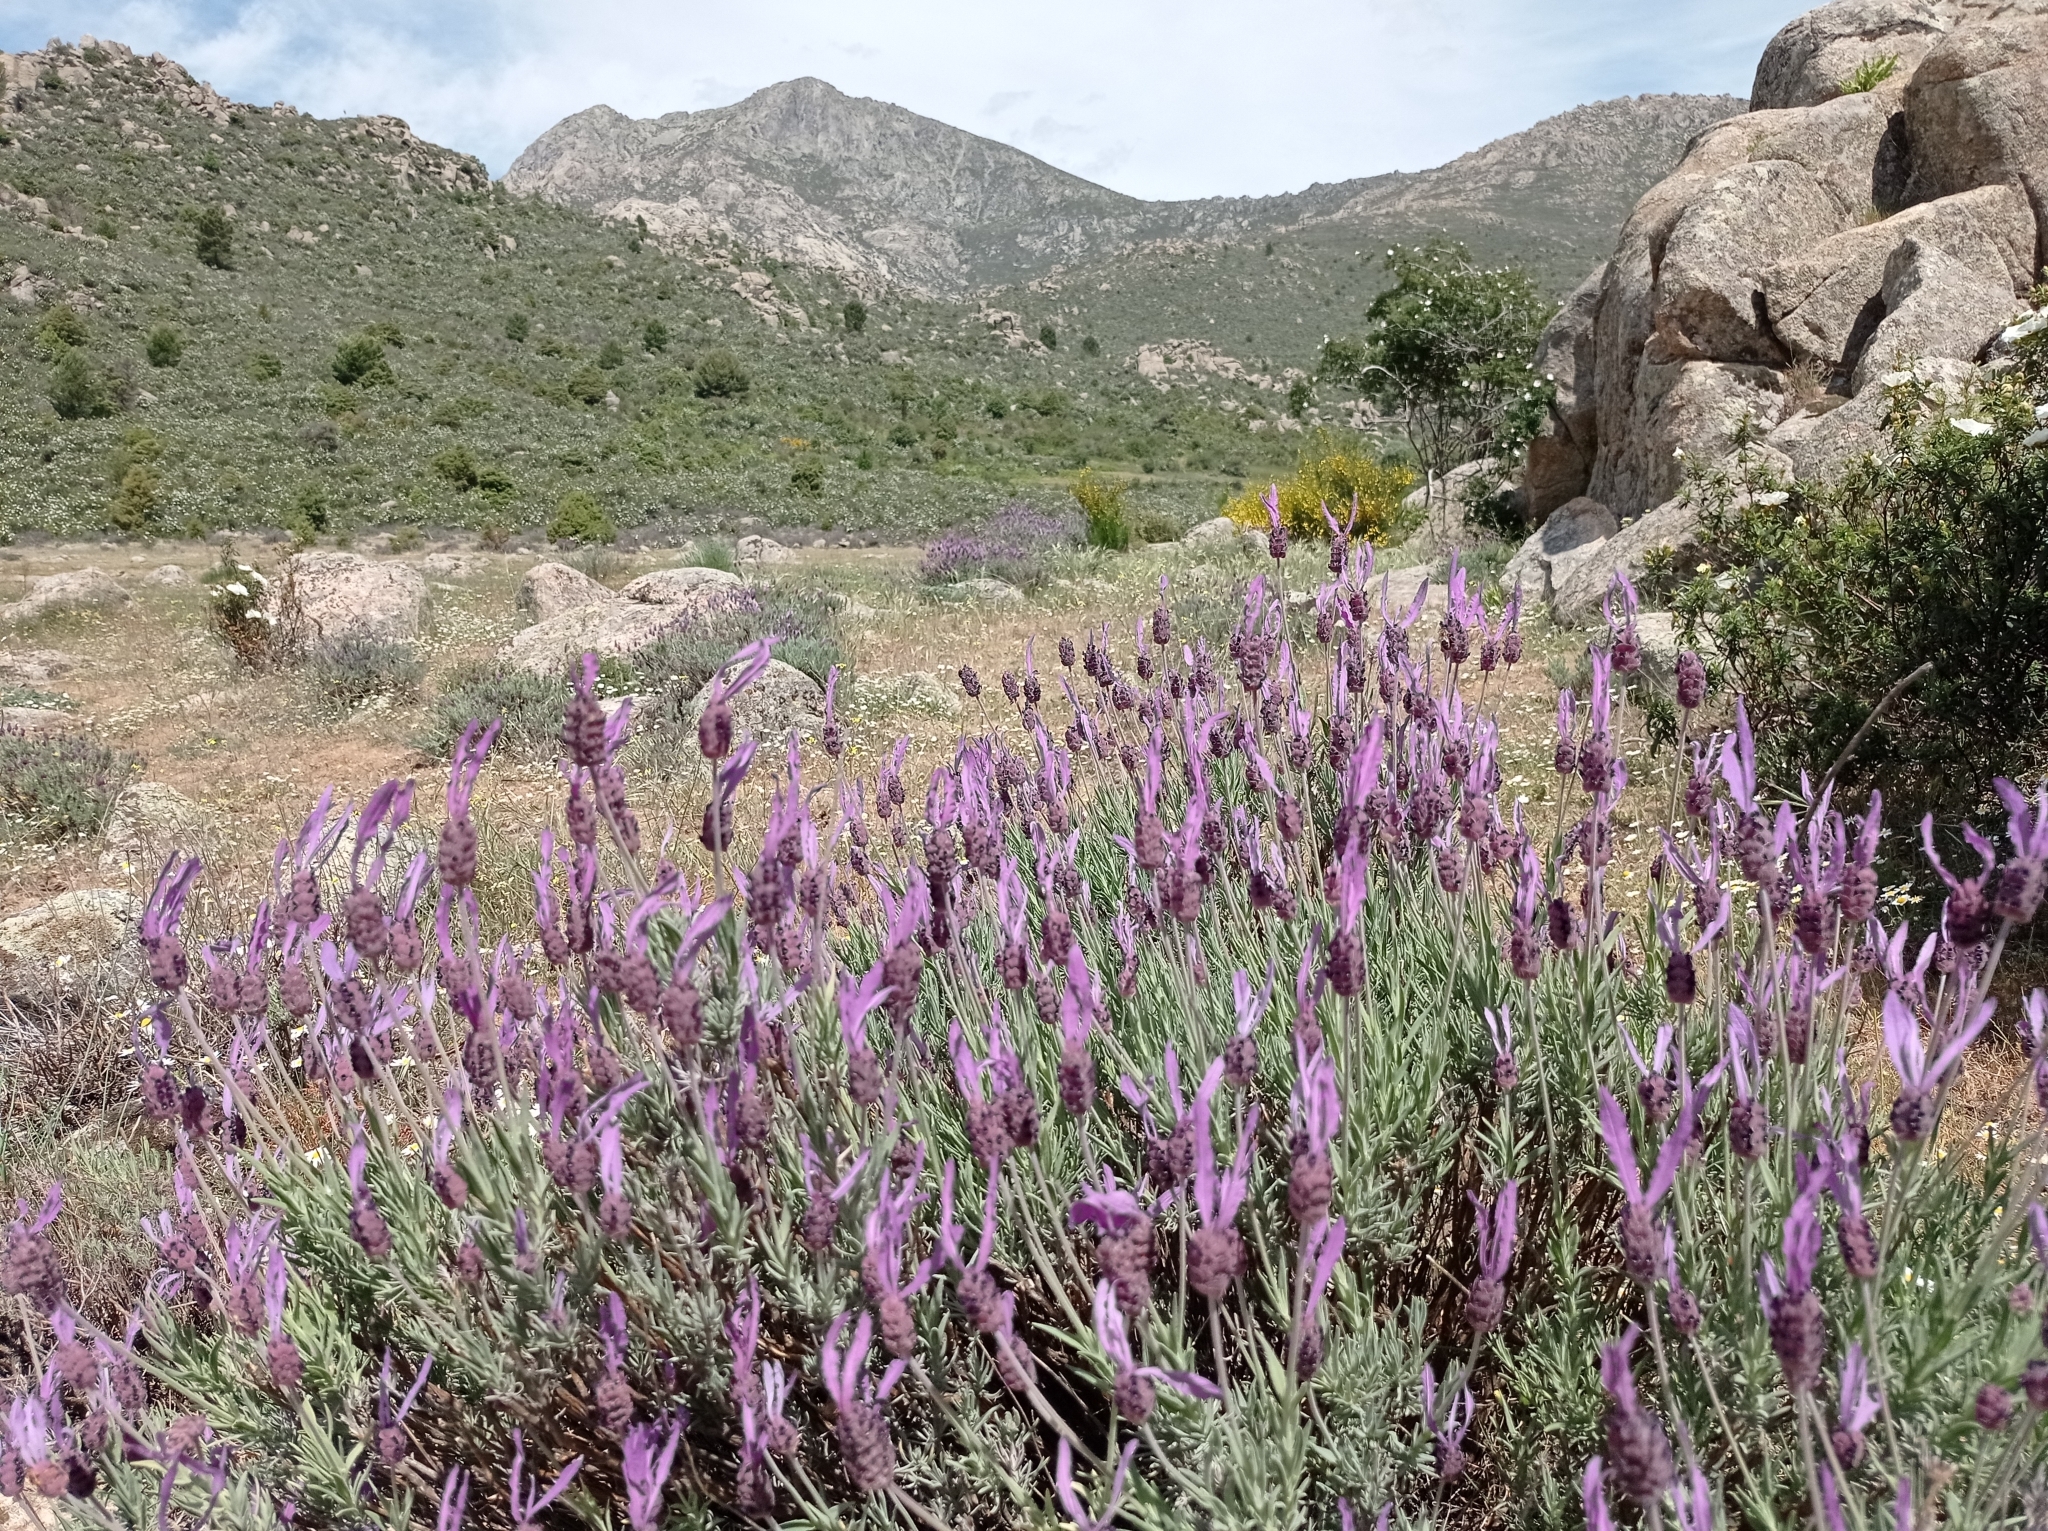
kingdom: Plantae
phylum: Tracheophyta
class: Magnoliopsida
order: Lamiales
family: Lamiaceae
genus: Lavandula
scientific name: Lavandula pedunculata
